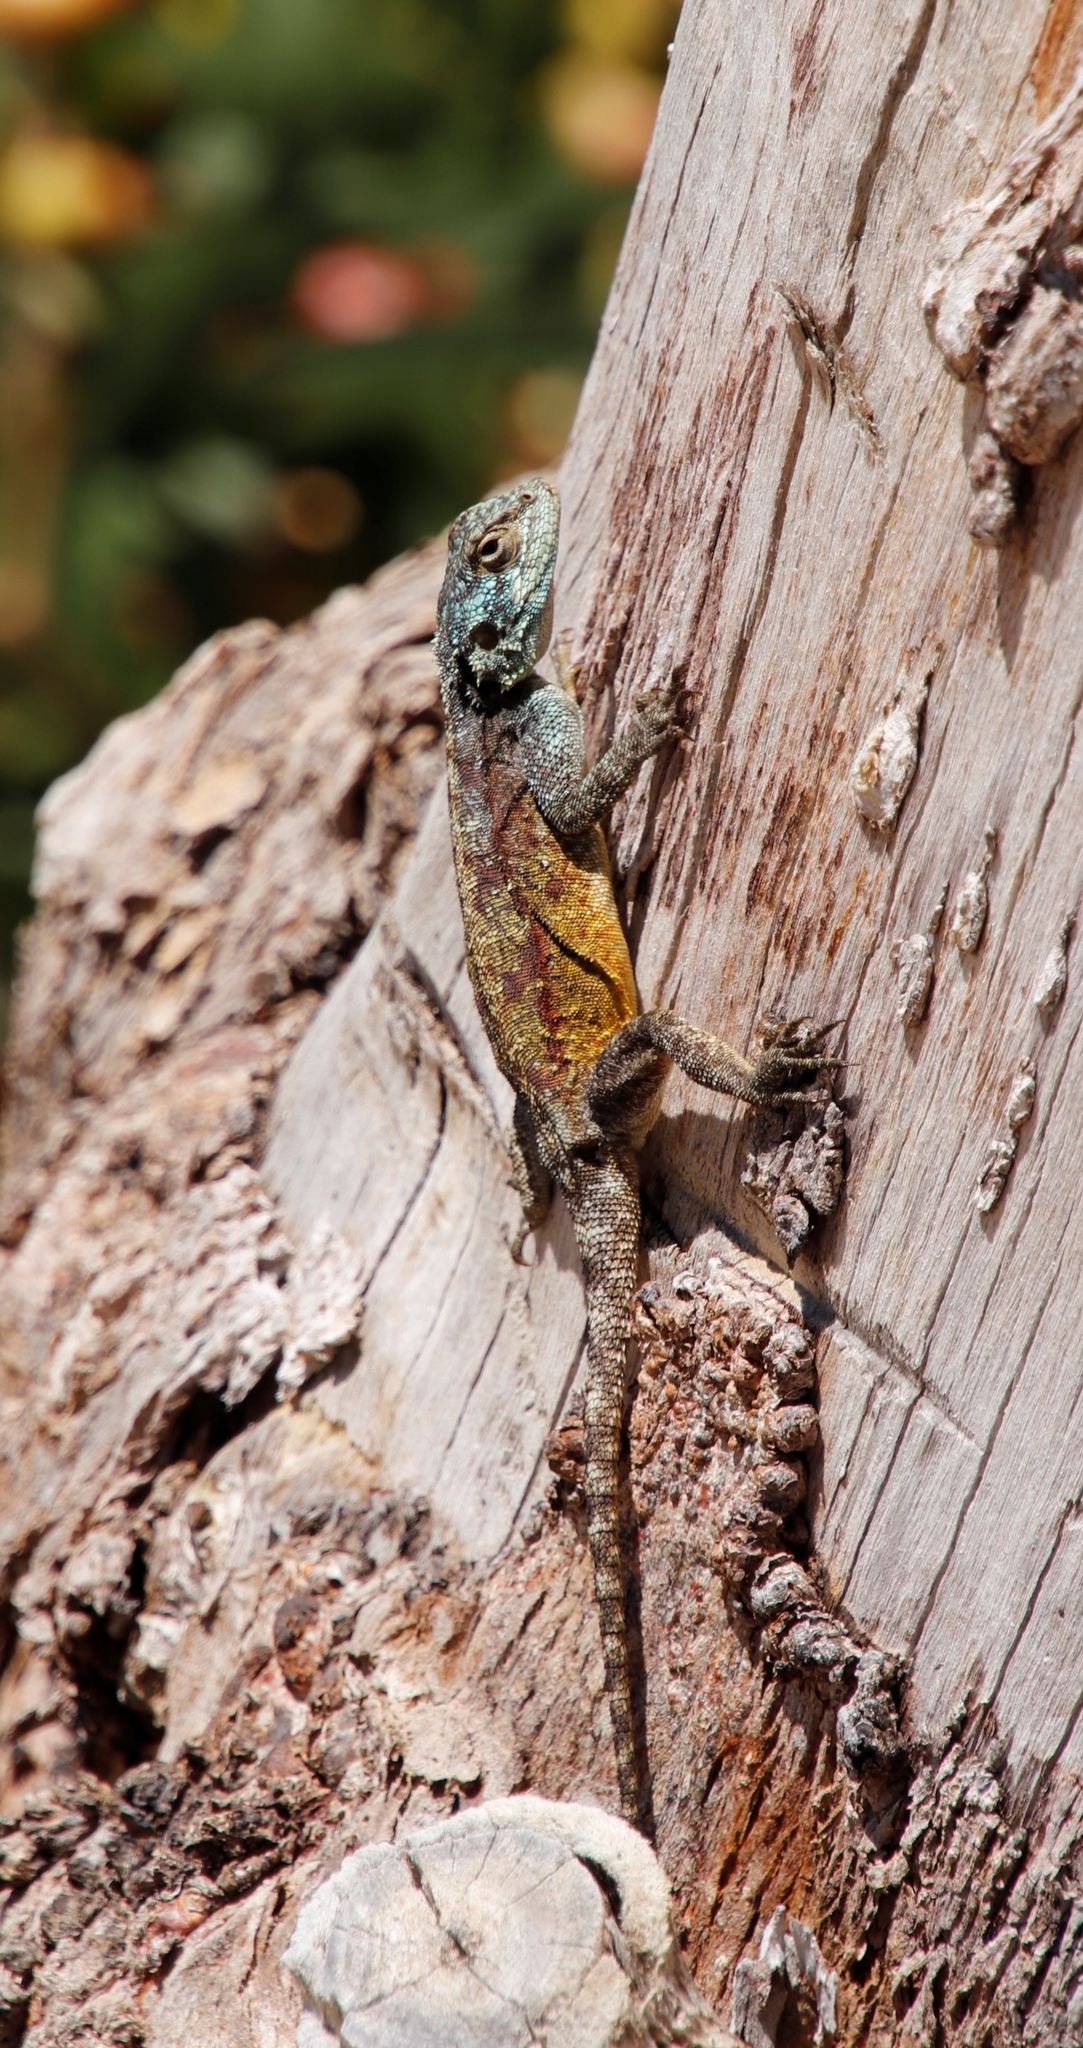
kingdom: Animalia
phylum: Chordata
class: Squamata
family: Agamidae
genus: Agama
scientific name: Agama atra
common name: Southern african rock agama
